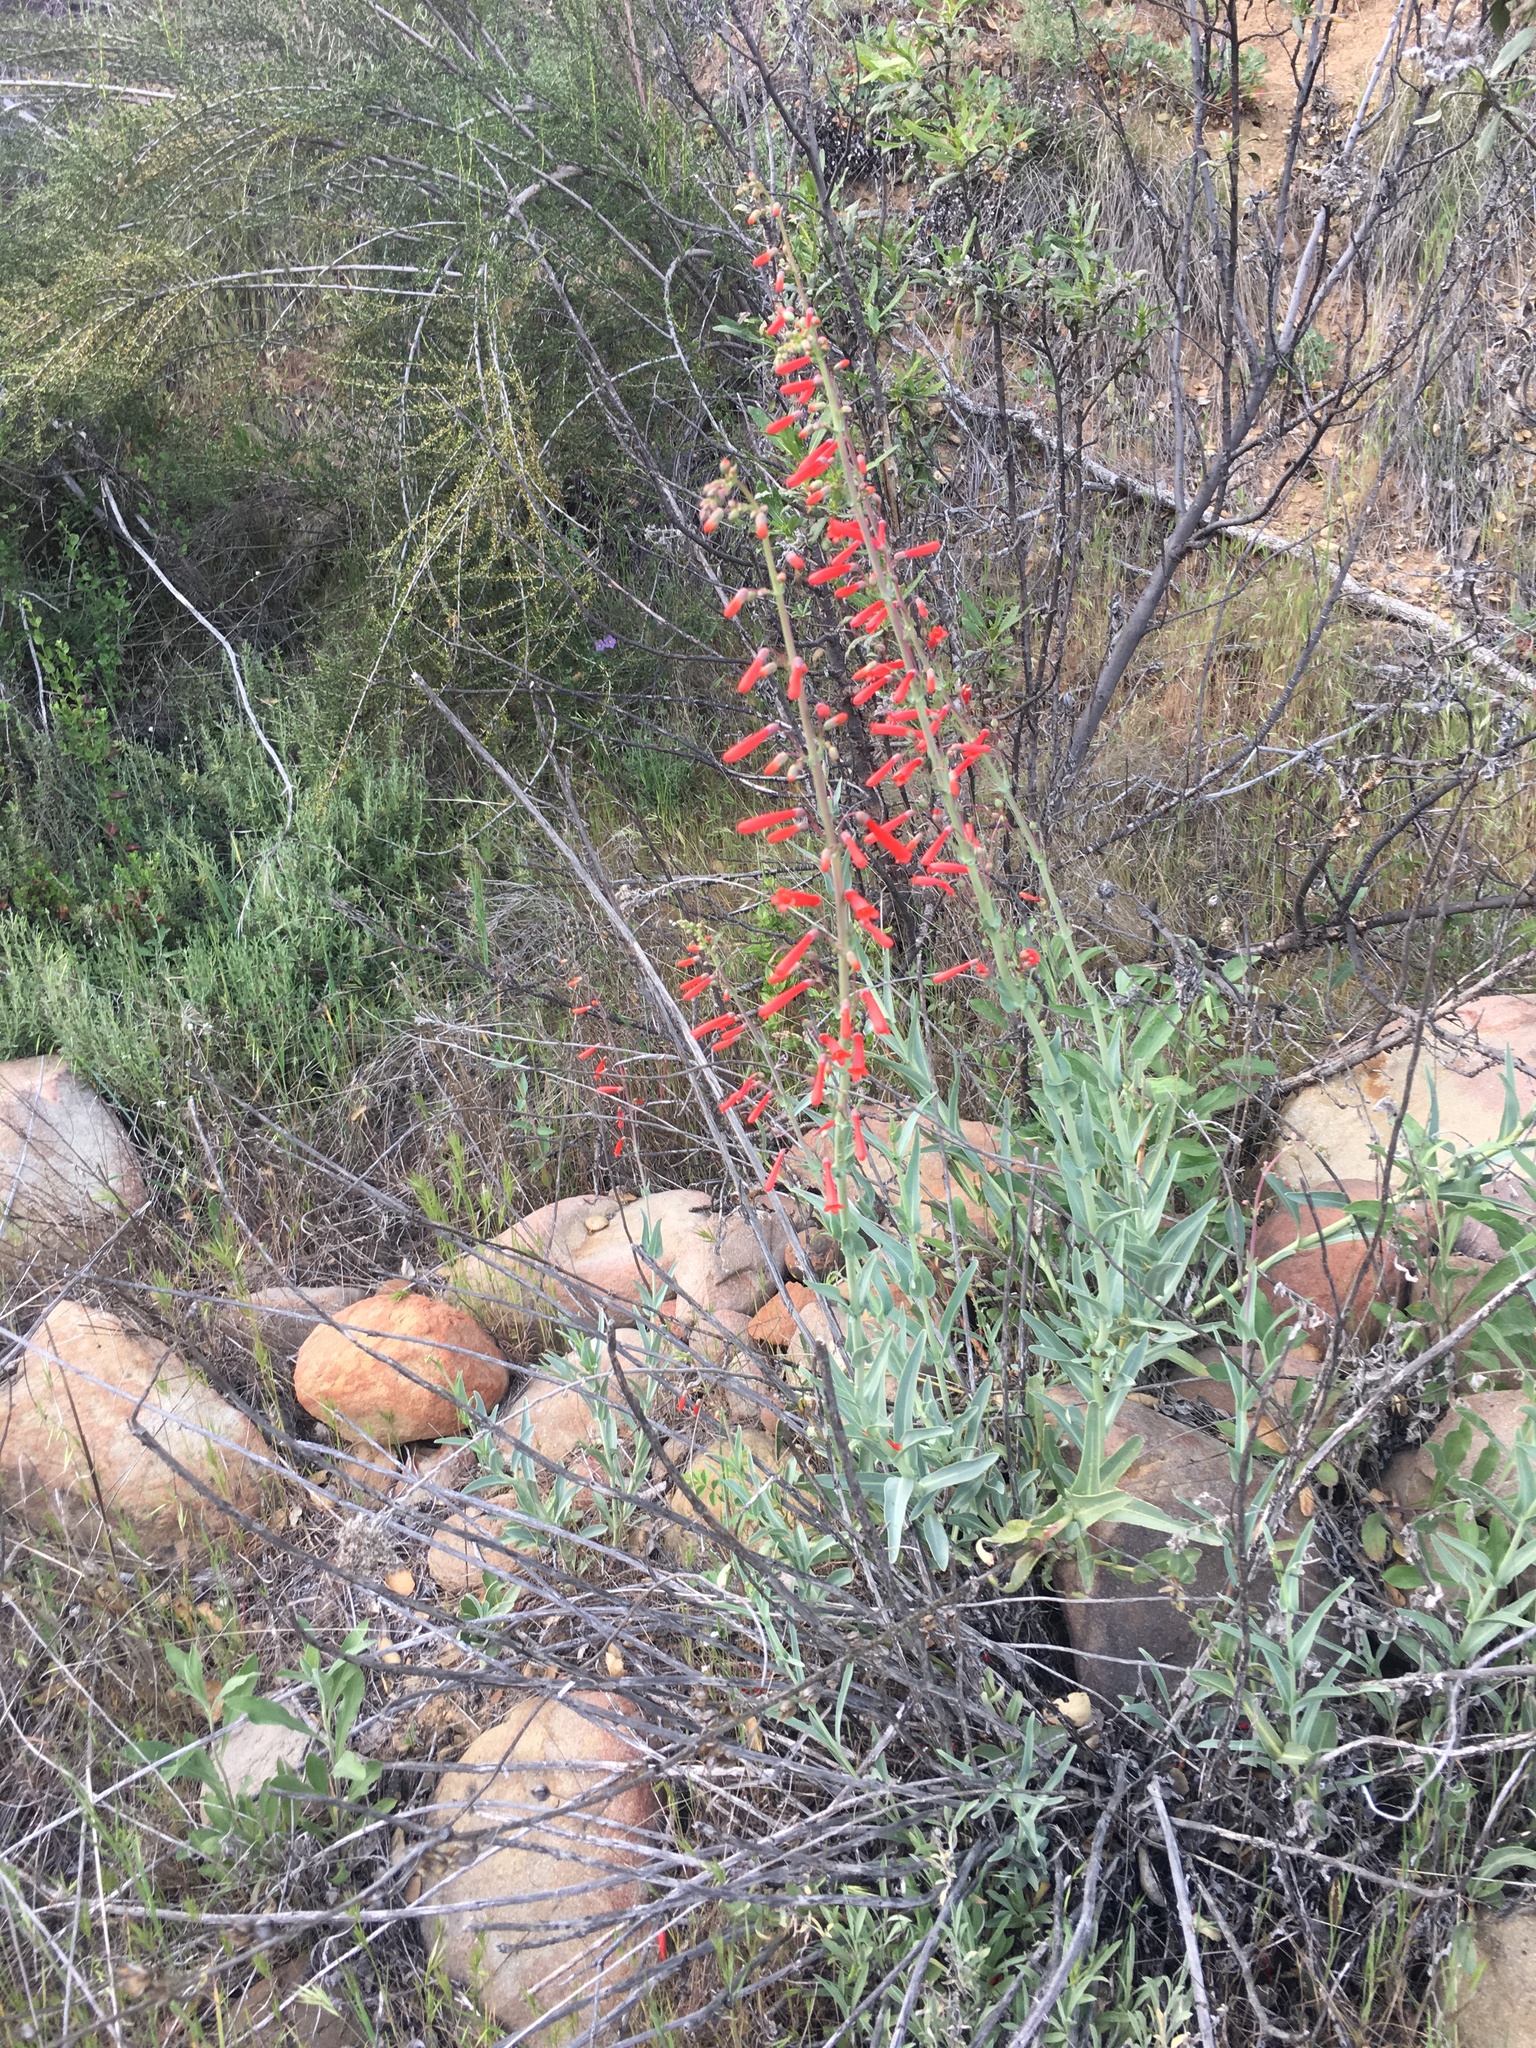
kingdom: Plantae
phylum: Tracheophyta
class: Magnoliopsida
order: Lamiales
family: Plantaginaceae
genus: Penstemon
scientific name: Penstemon centranthifolius
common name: Scarlet bugler
